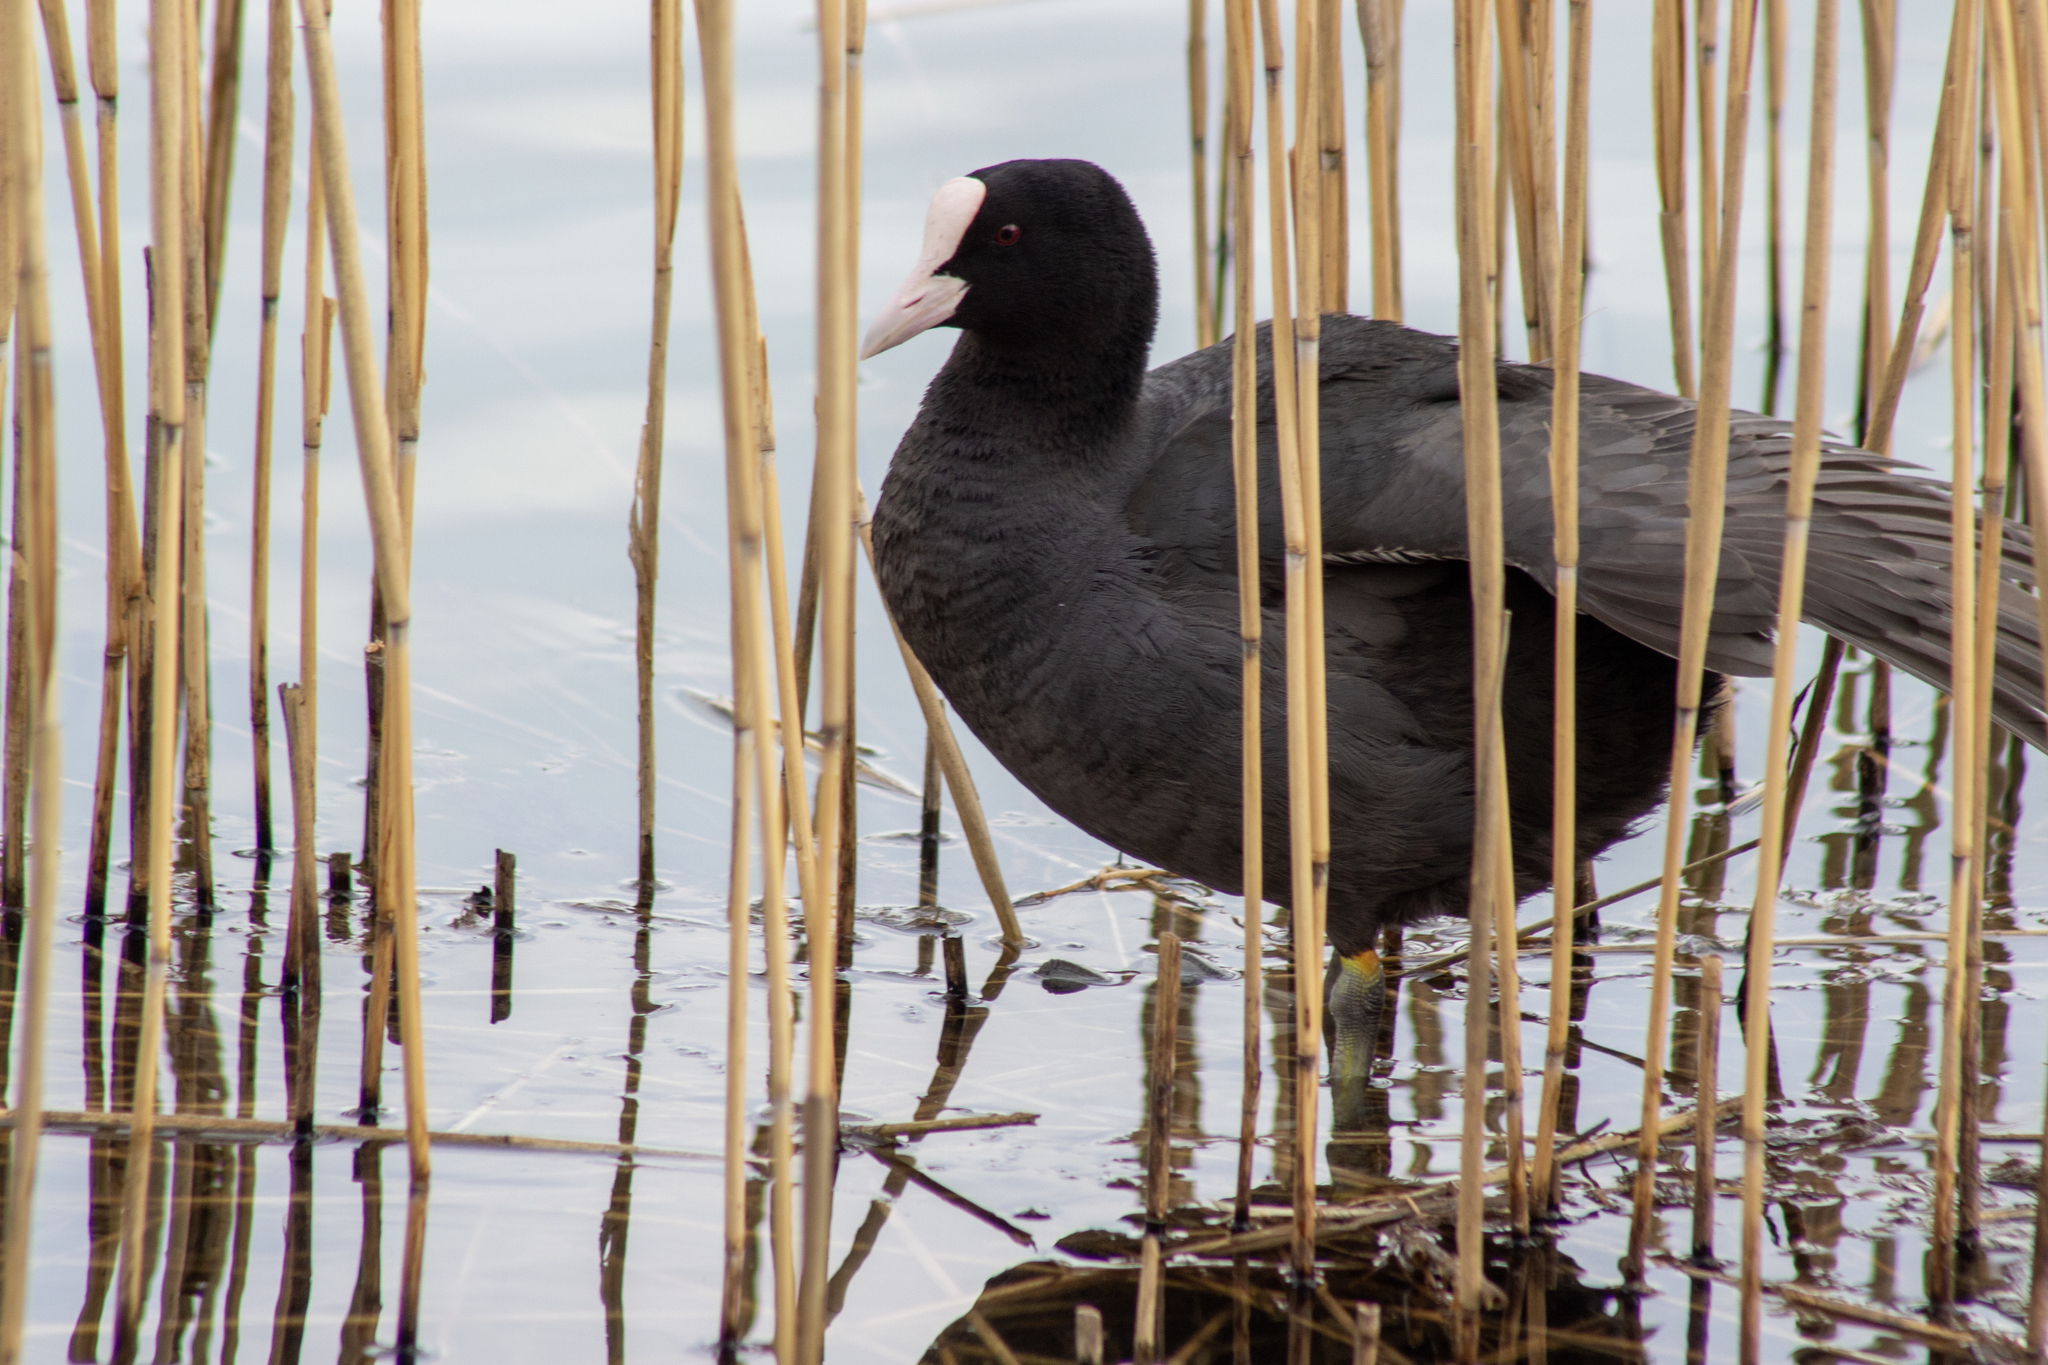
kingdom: Animalia
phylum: Chordata
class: Aves
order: Gruiformes
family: Rallidae
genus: Fulica
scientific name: Fulica atra
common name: Eurasian coot
